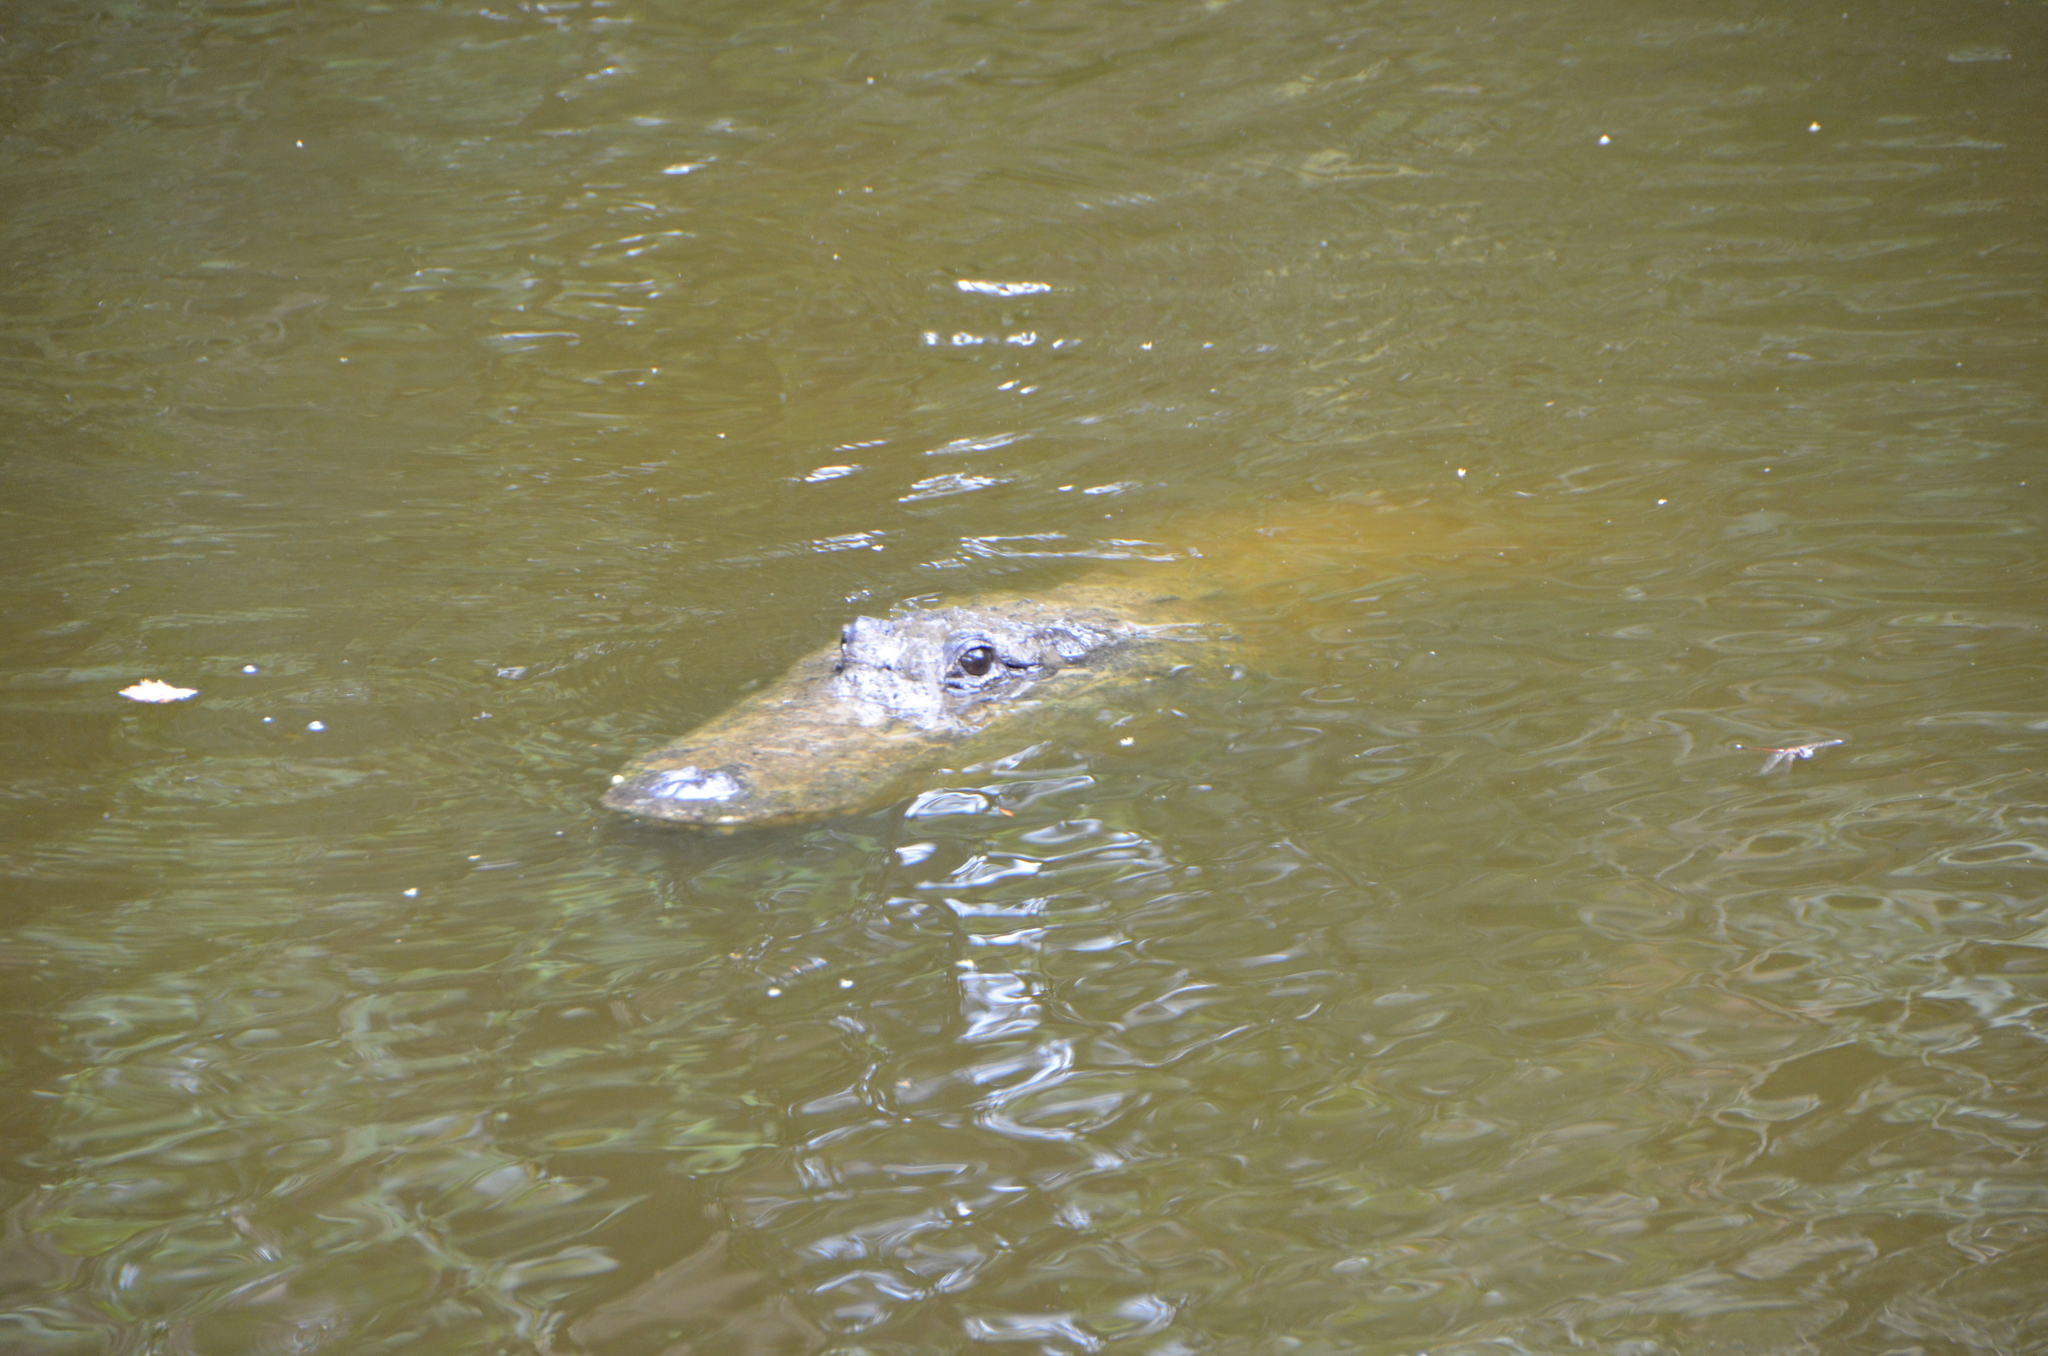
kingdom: Animalia
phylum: Chordata
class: Crocodylia
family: Alligatoridae
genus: Alligator
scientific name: Alligator mississippiensis
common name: American alligator
